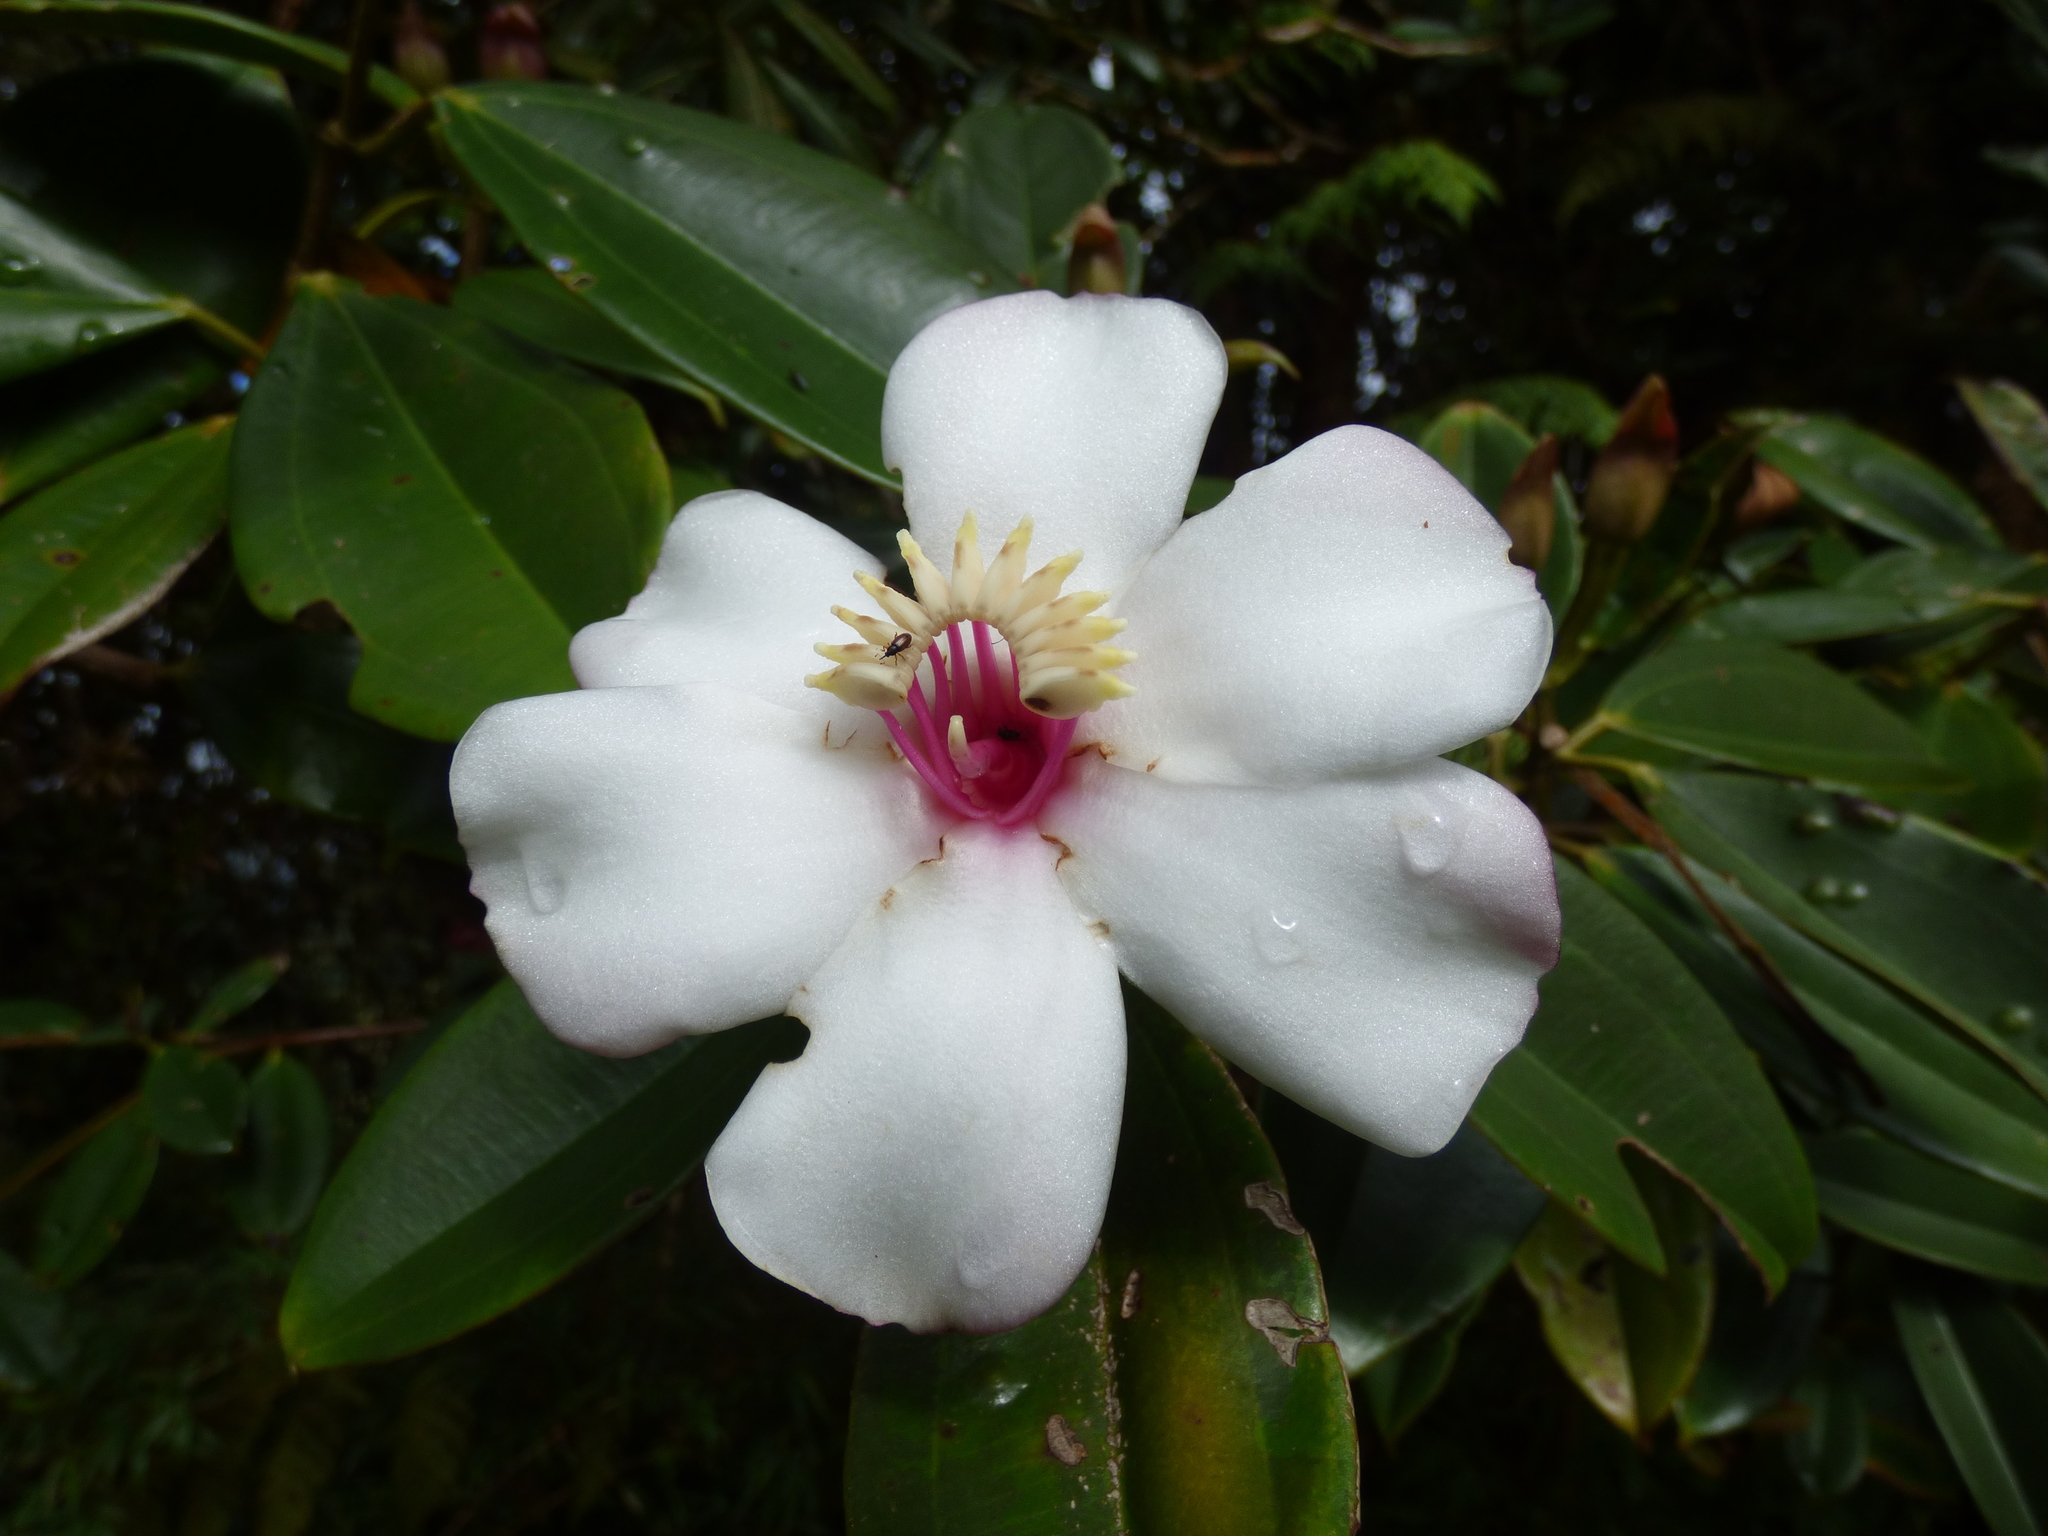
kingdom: Plantae
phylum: Tracheophyta
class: Magnoliopsida
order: Myrtales
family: Melastomataceae
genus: Blakea
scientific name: Blakea quadrangularis
